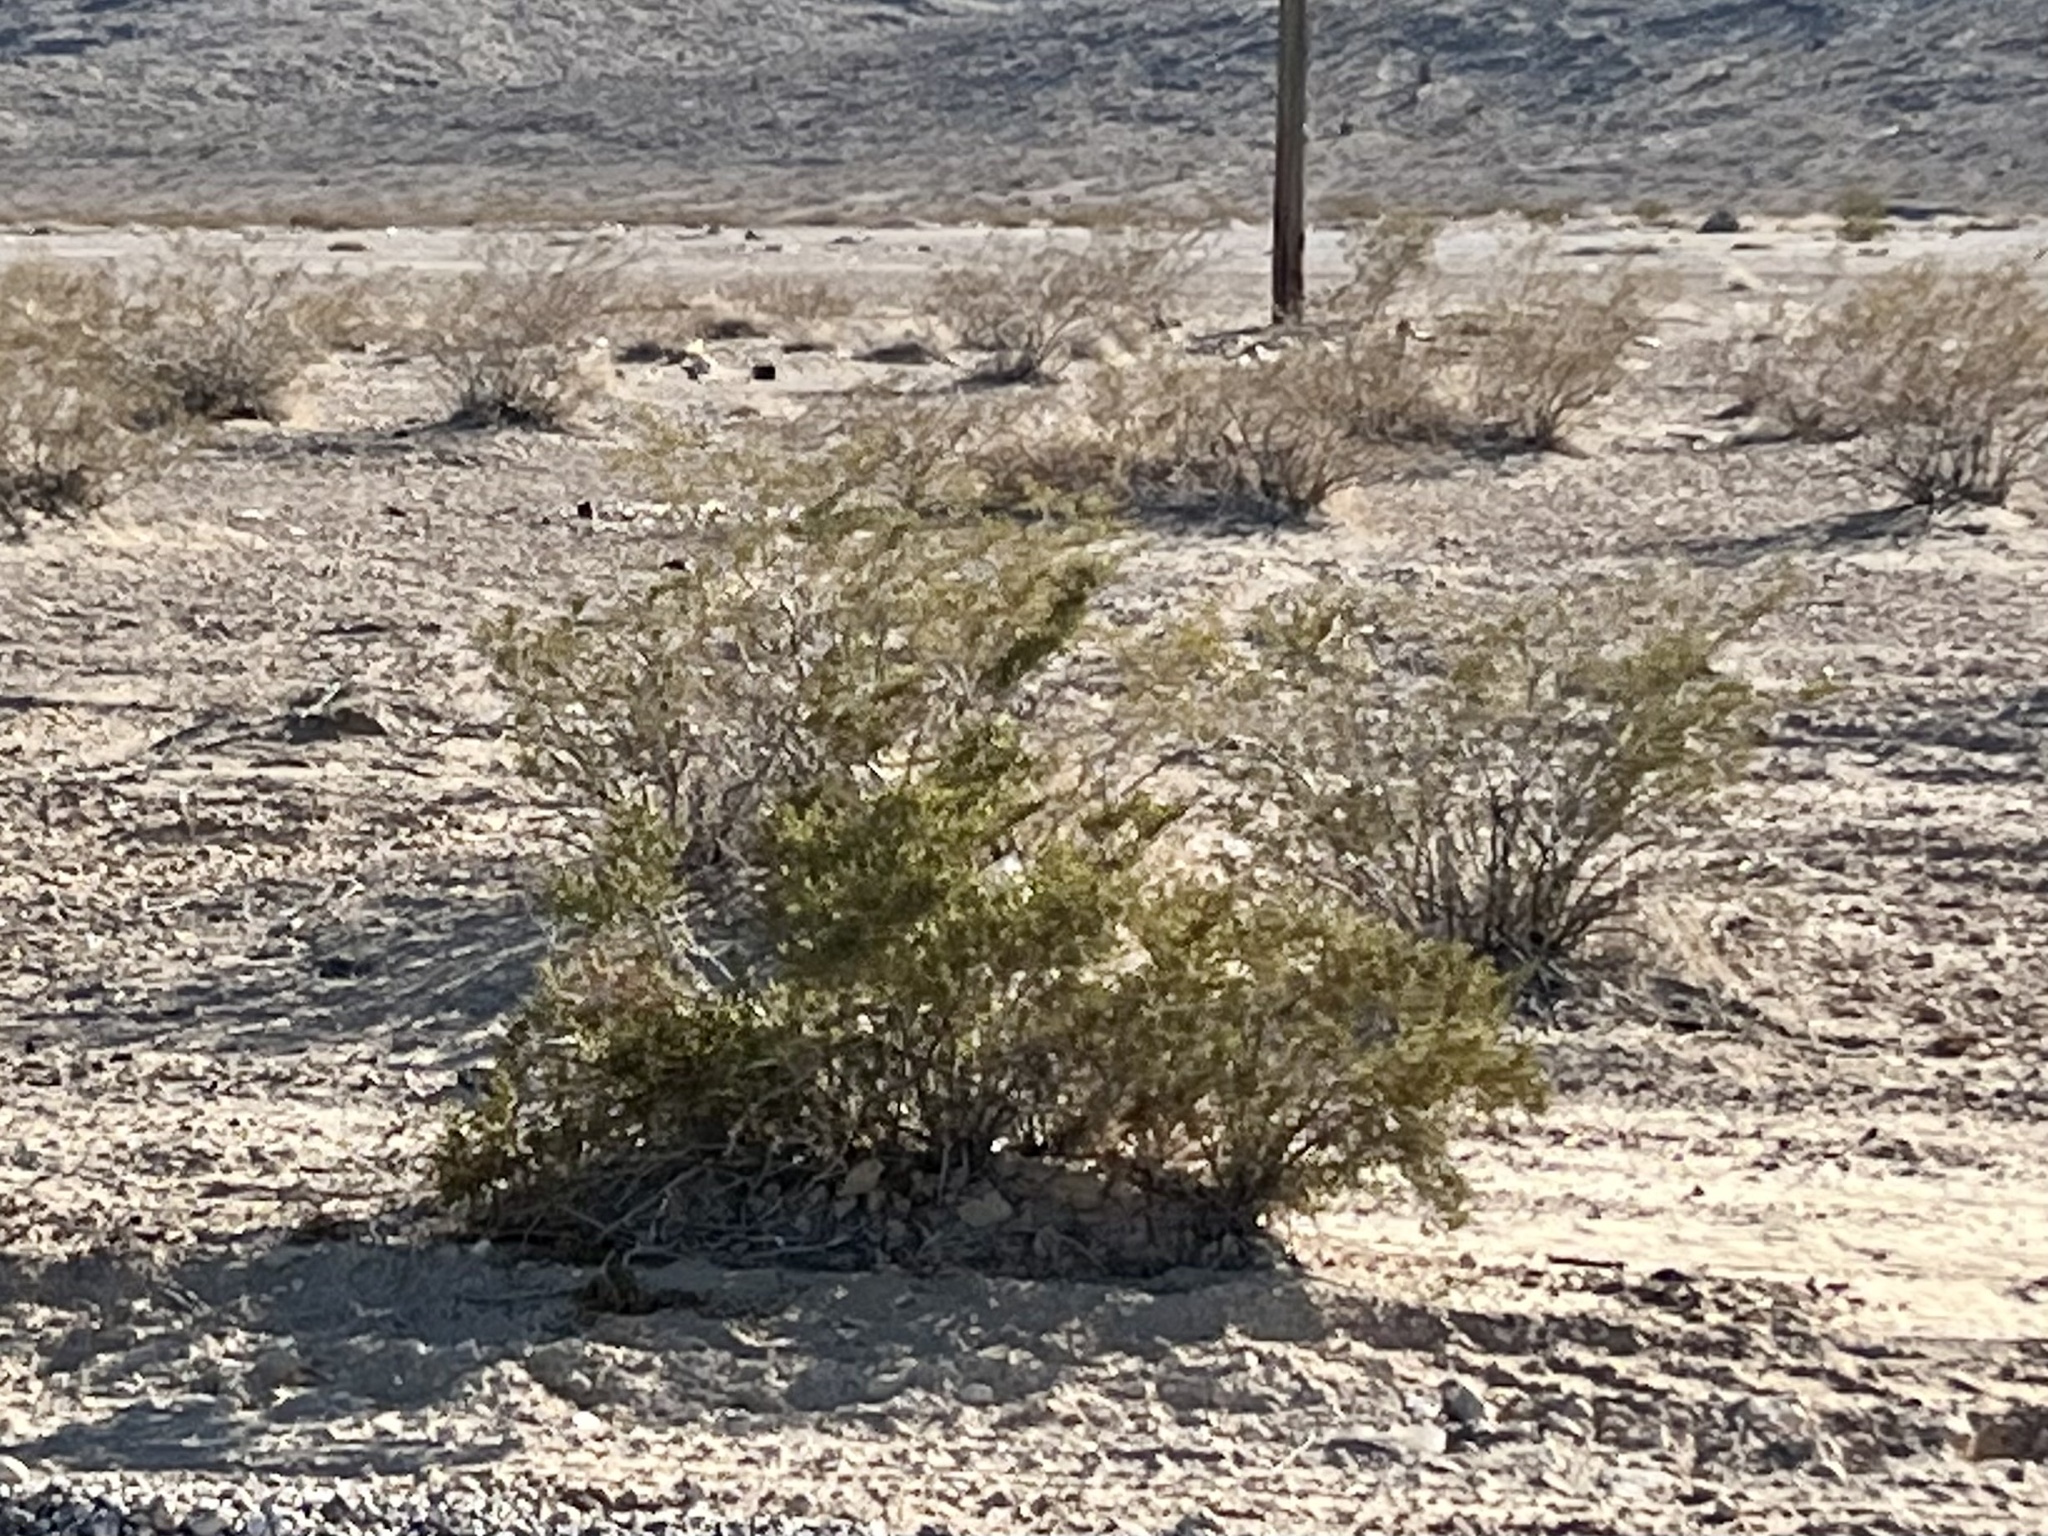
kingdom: Plantae
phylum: Tracheophyta
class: Magnoliopsida
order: Zygophyllales
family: Zygophyllaceae
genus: Larrea
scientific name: Larrea tridentata
